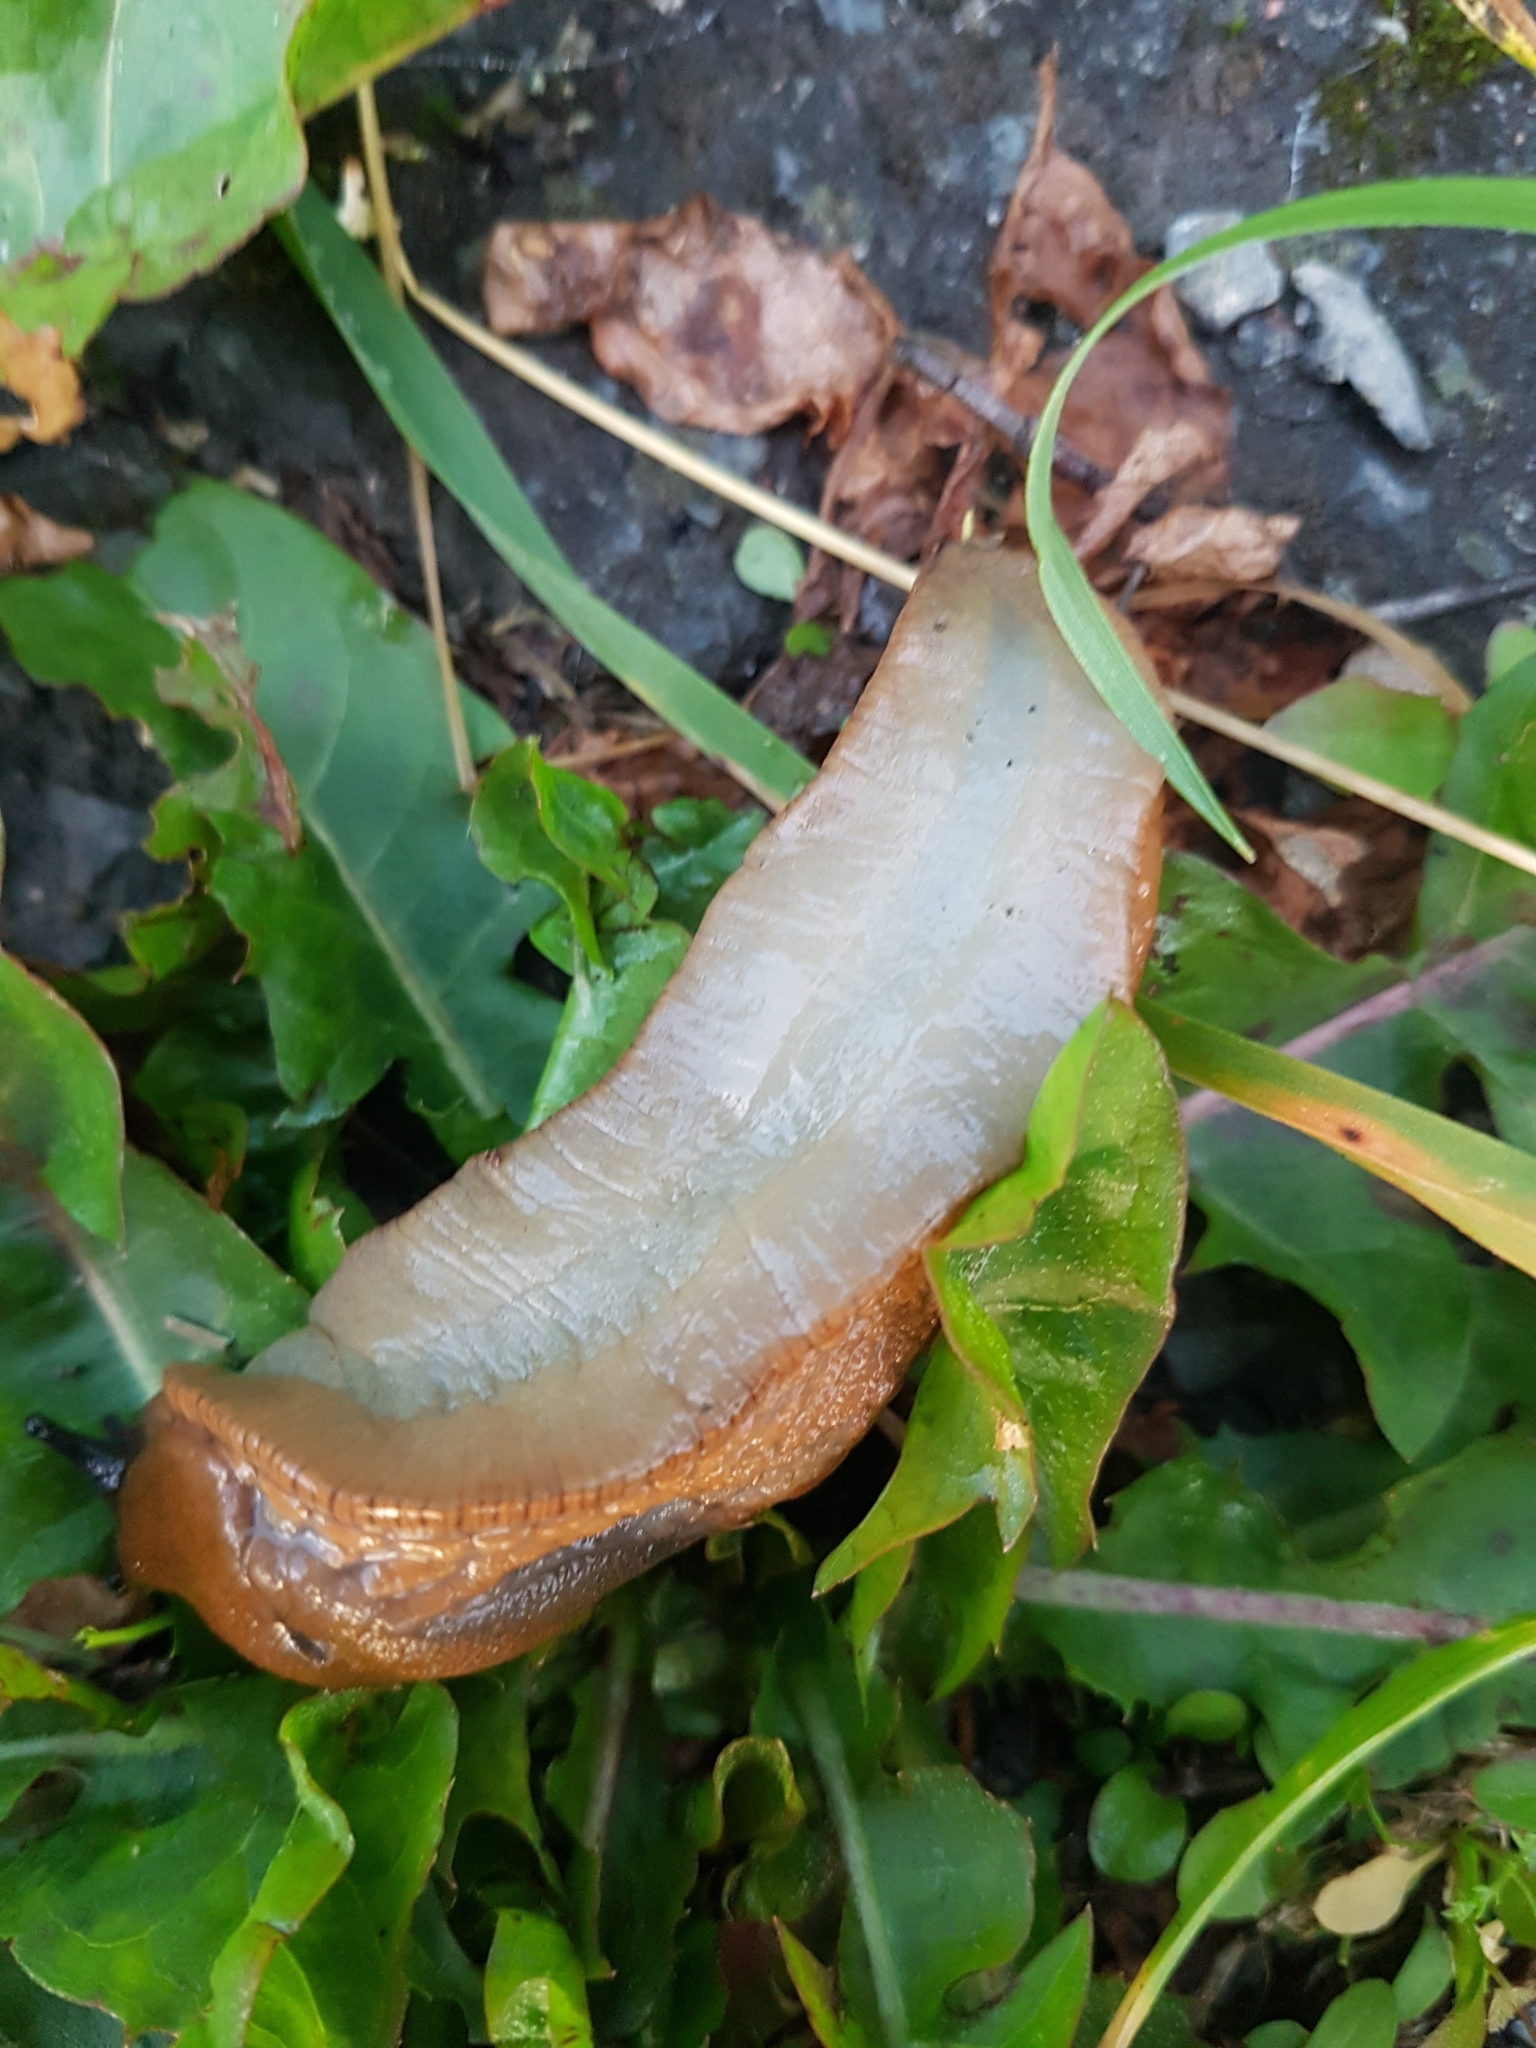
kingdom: Animalia
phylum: Mollusca
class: Gastropoda
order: Stylommatophora
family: Arionidae
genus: Arion
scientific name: Arion vulgaris
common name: Lusitanian slug
